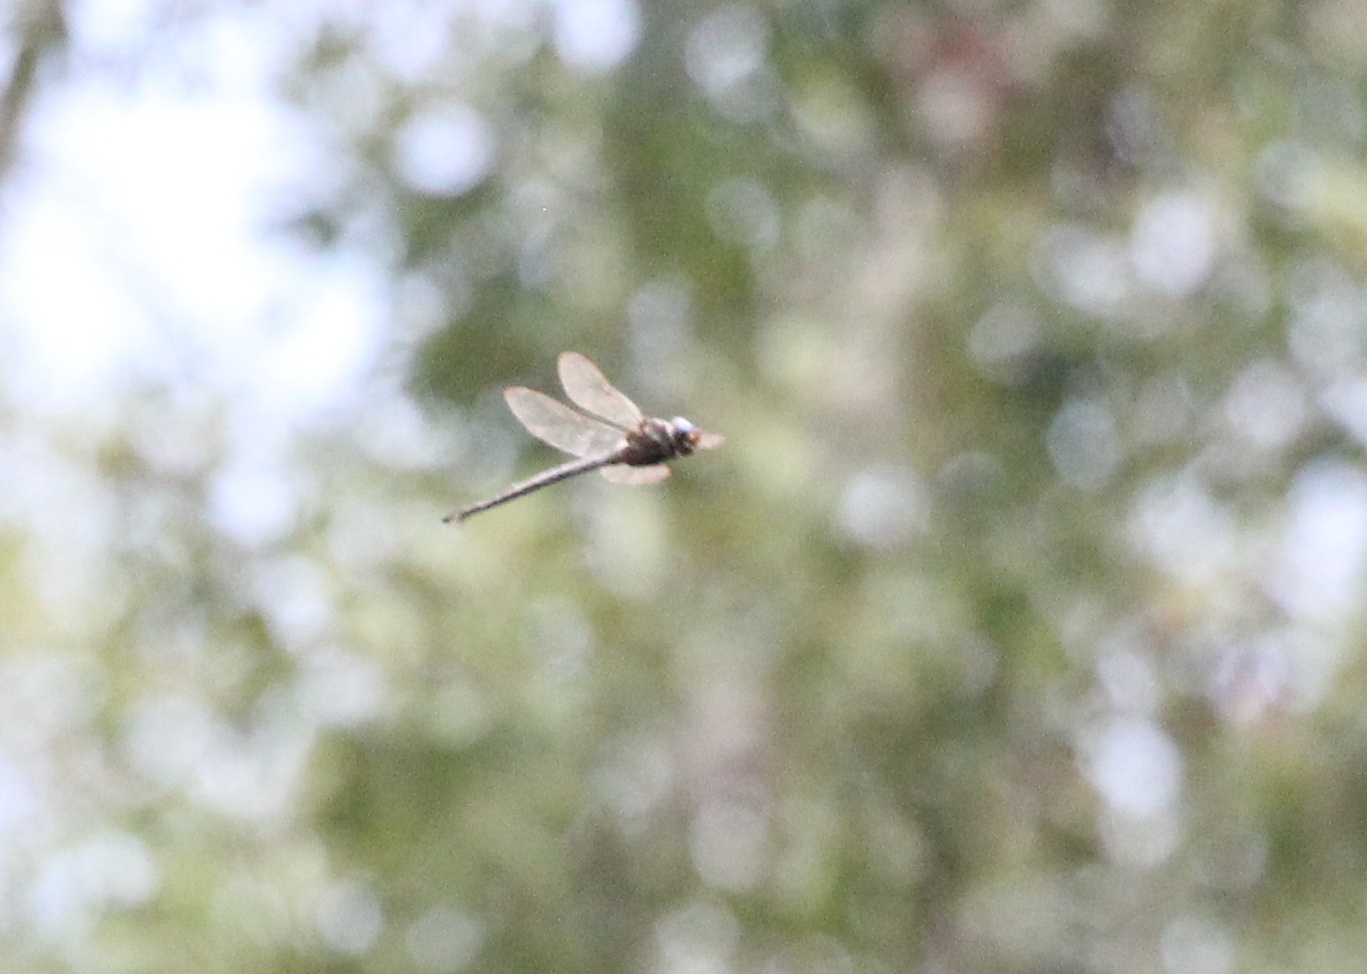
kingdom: Animalia
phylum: Arthropoda
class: Insecta
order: Odonata
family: Aeshnidae
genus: Epiaeschna
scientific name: Epiaeschna heros
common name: Swamp darner
